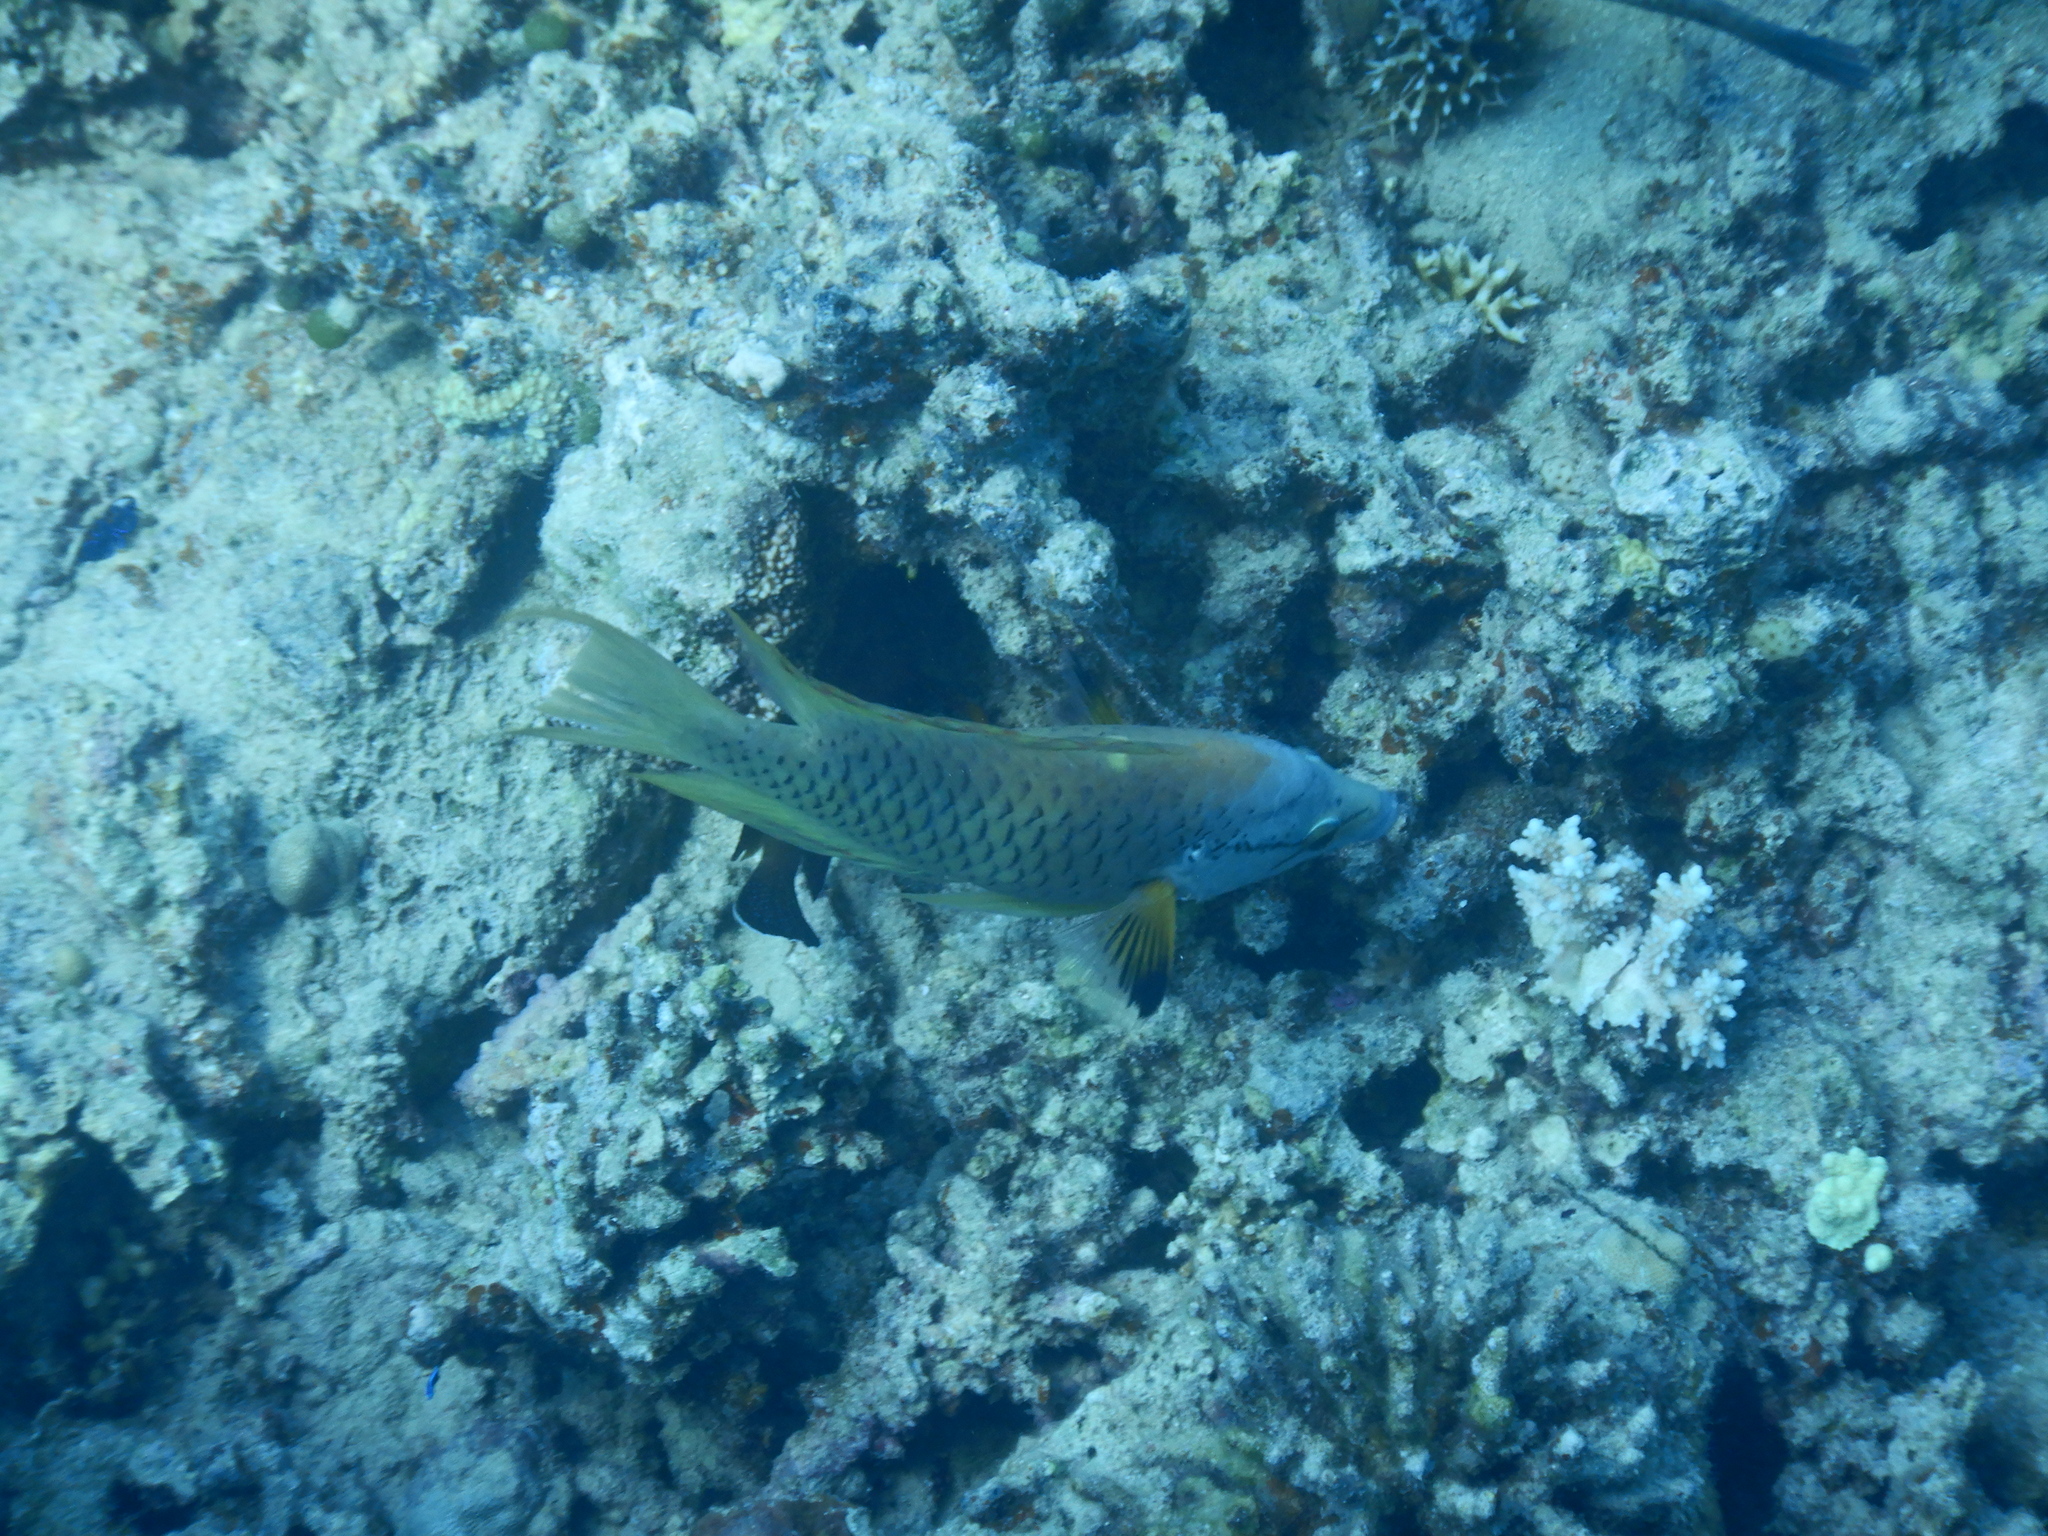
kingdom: Animalia
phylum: Chordata
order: Perciformes
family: Labridae
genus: Epibulus
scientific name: Epibulus insidiator
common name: Slingjaw wrasse
